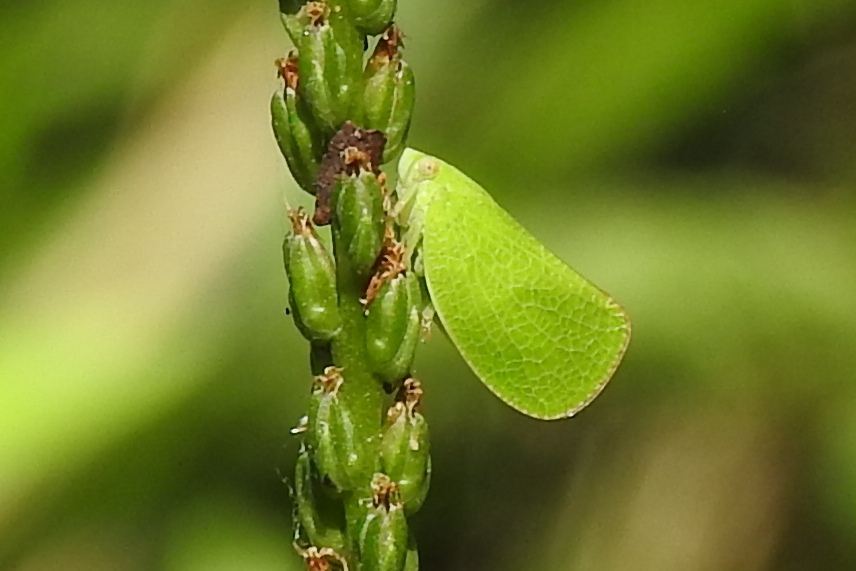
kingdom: Animalia
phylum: Arthropoda
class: Insecta
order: Hemiptera
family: Acanaloniidae
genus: Acanalonia
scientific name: Acanalonia conica
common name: Green cone-headed planthopper
